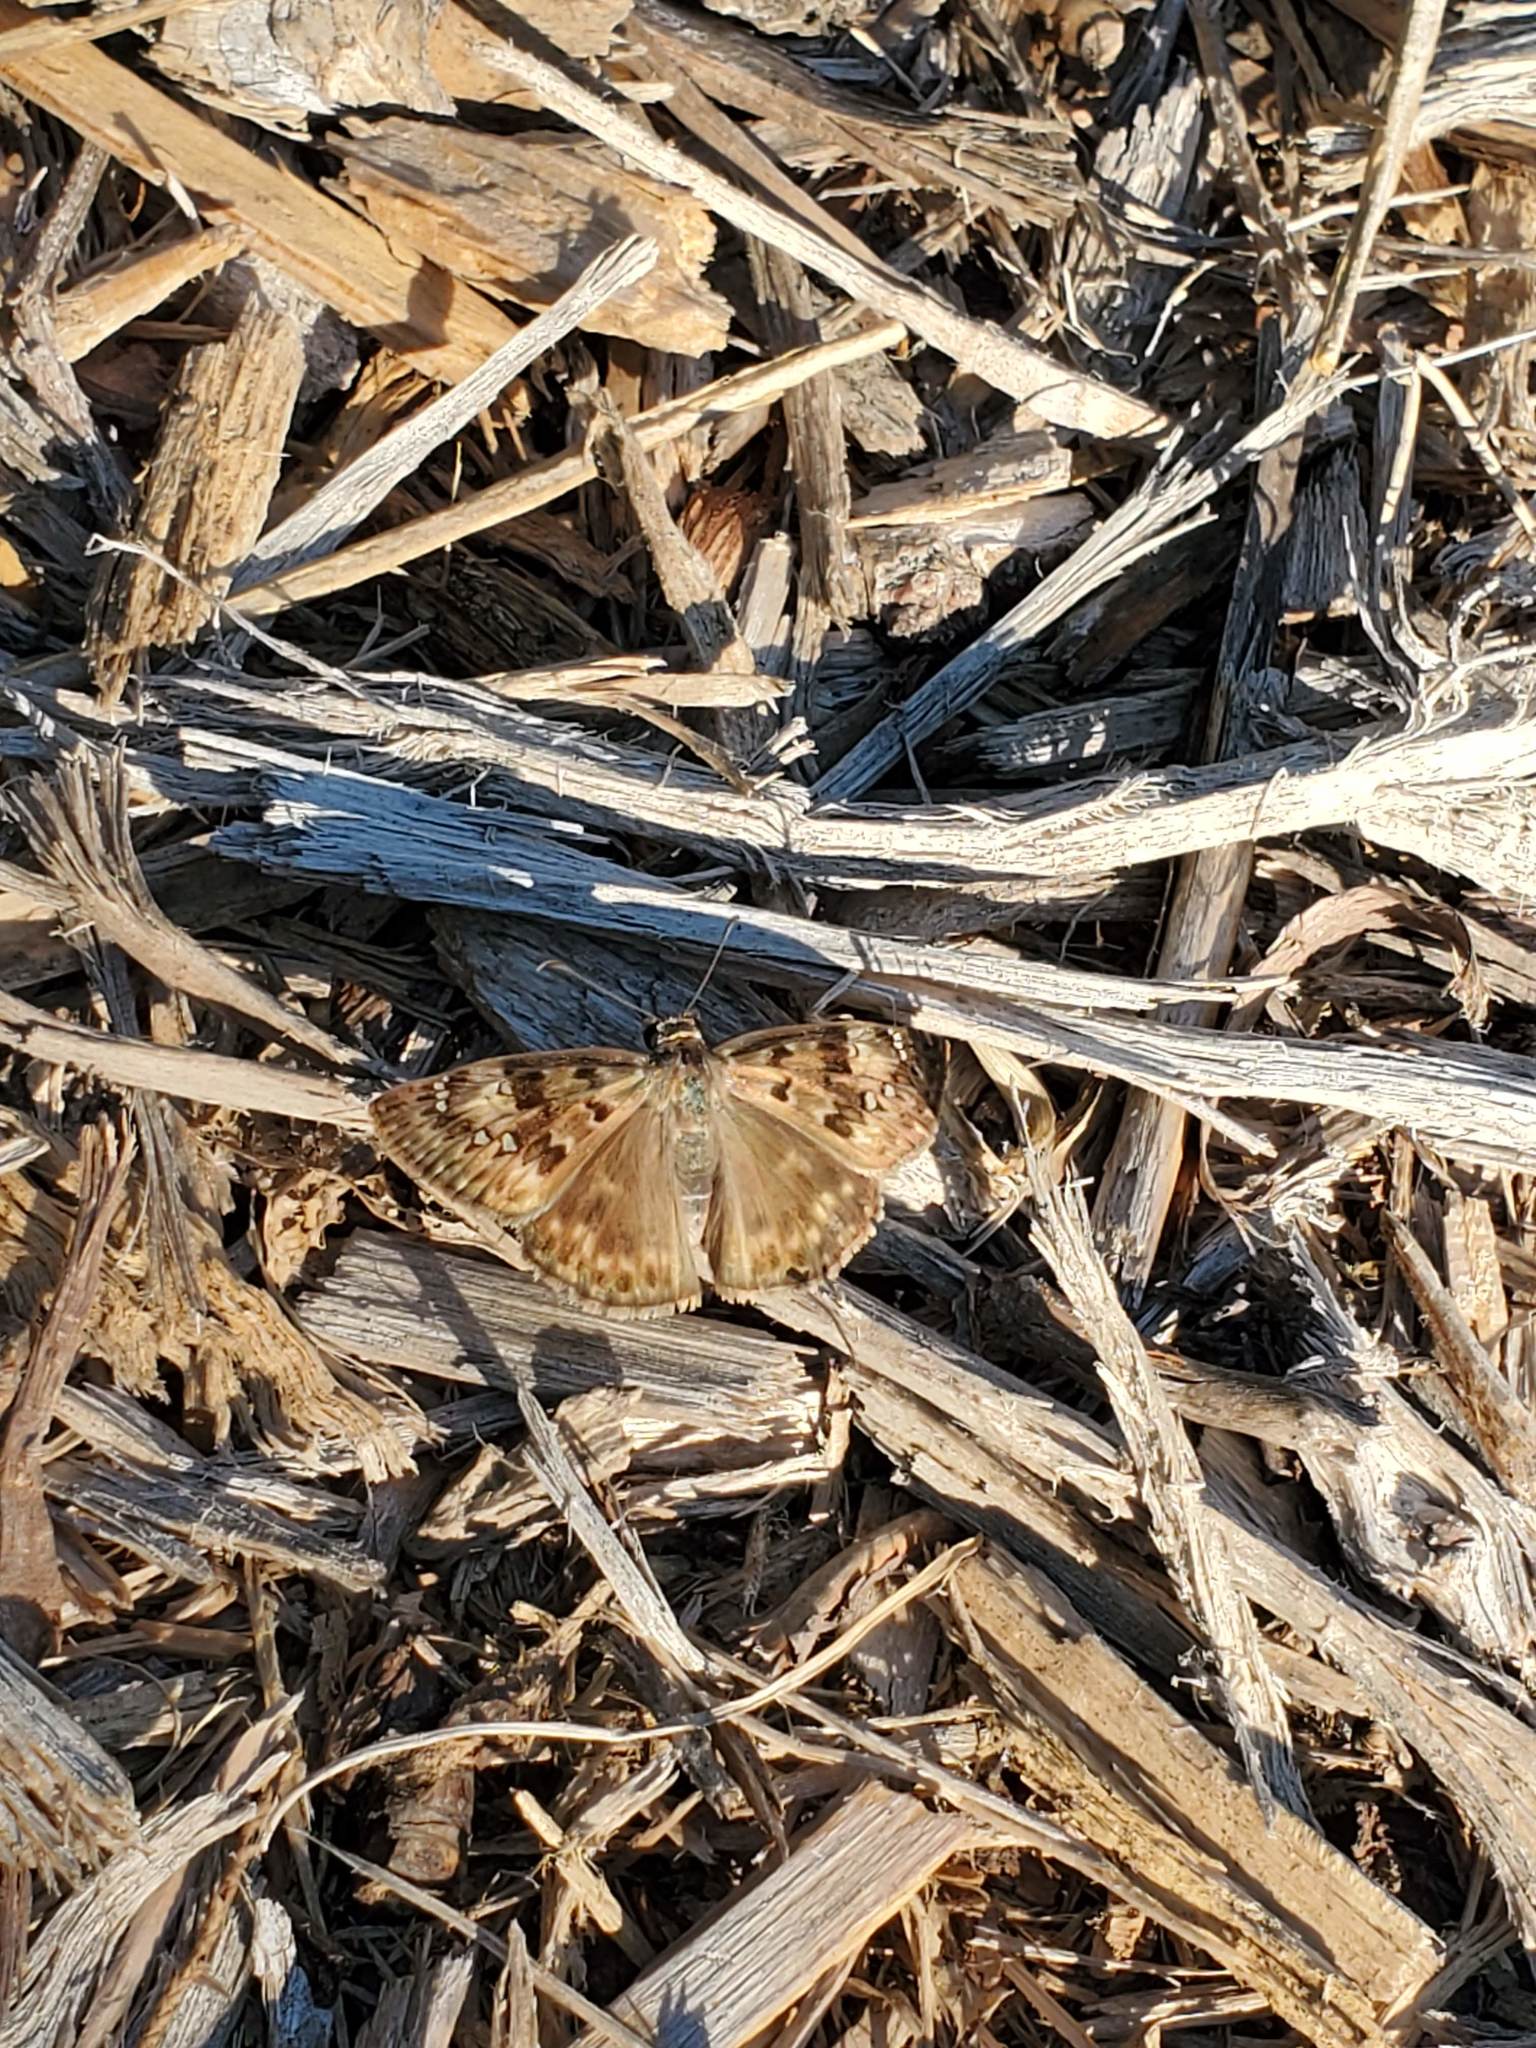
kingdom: Animalia
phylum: Arthropoda
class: Insecta
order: Lepidoptera
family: Hesperiidae
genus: Erynnis
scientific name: Erynnis horatius
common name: Horace's duskywing
